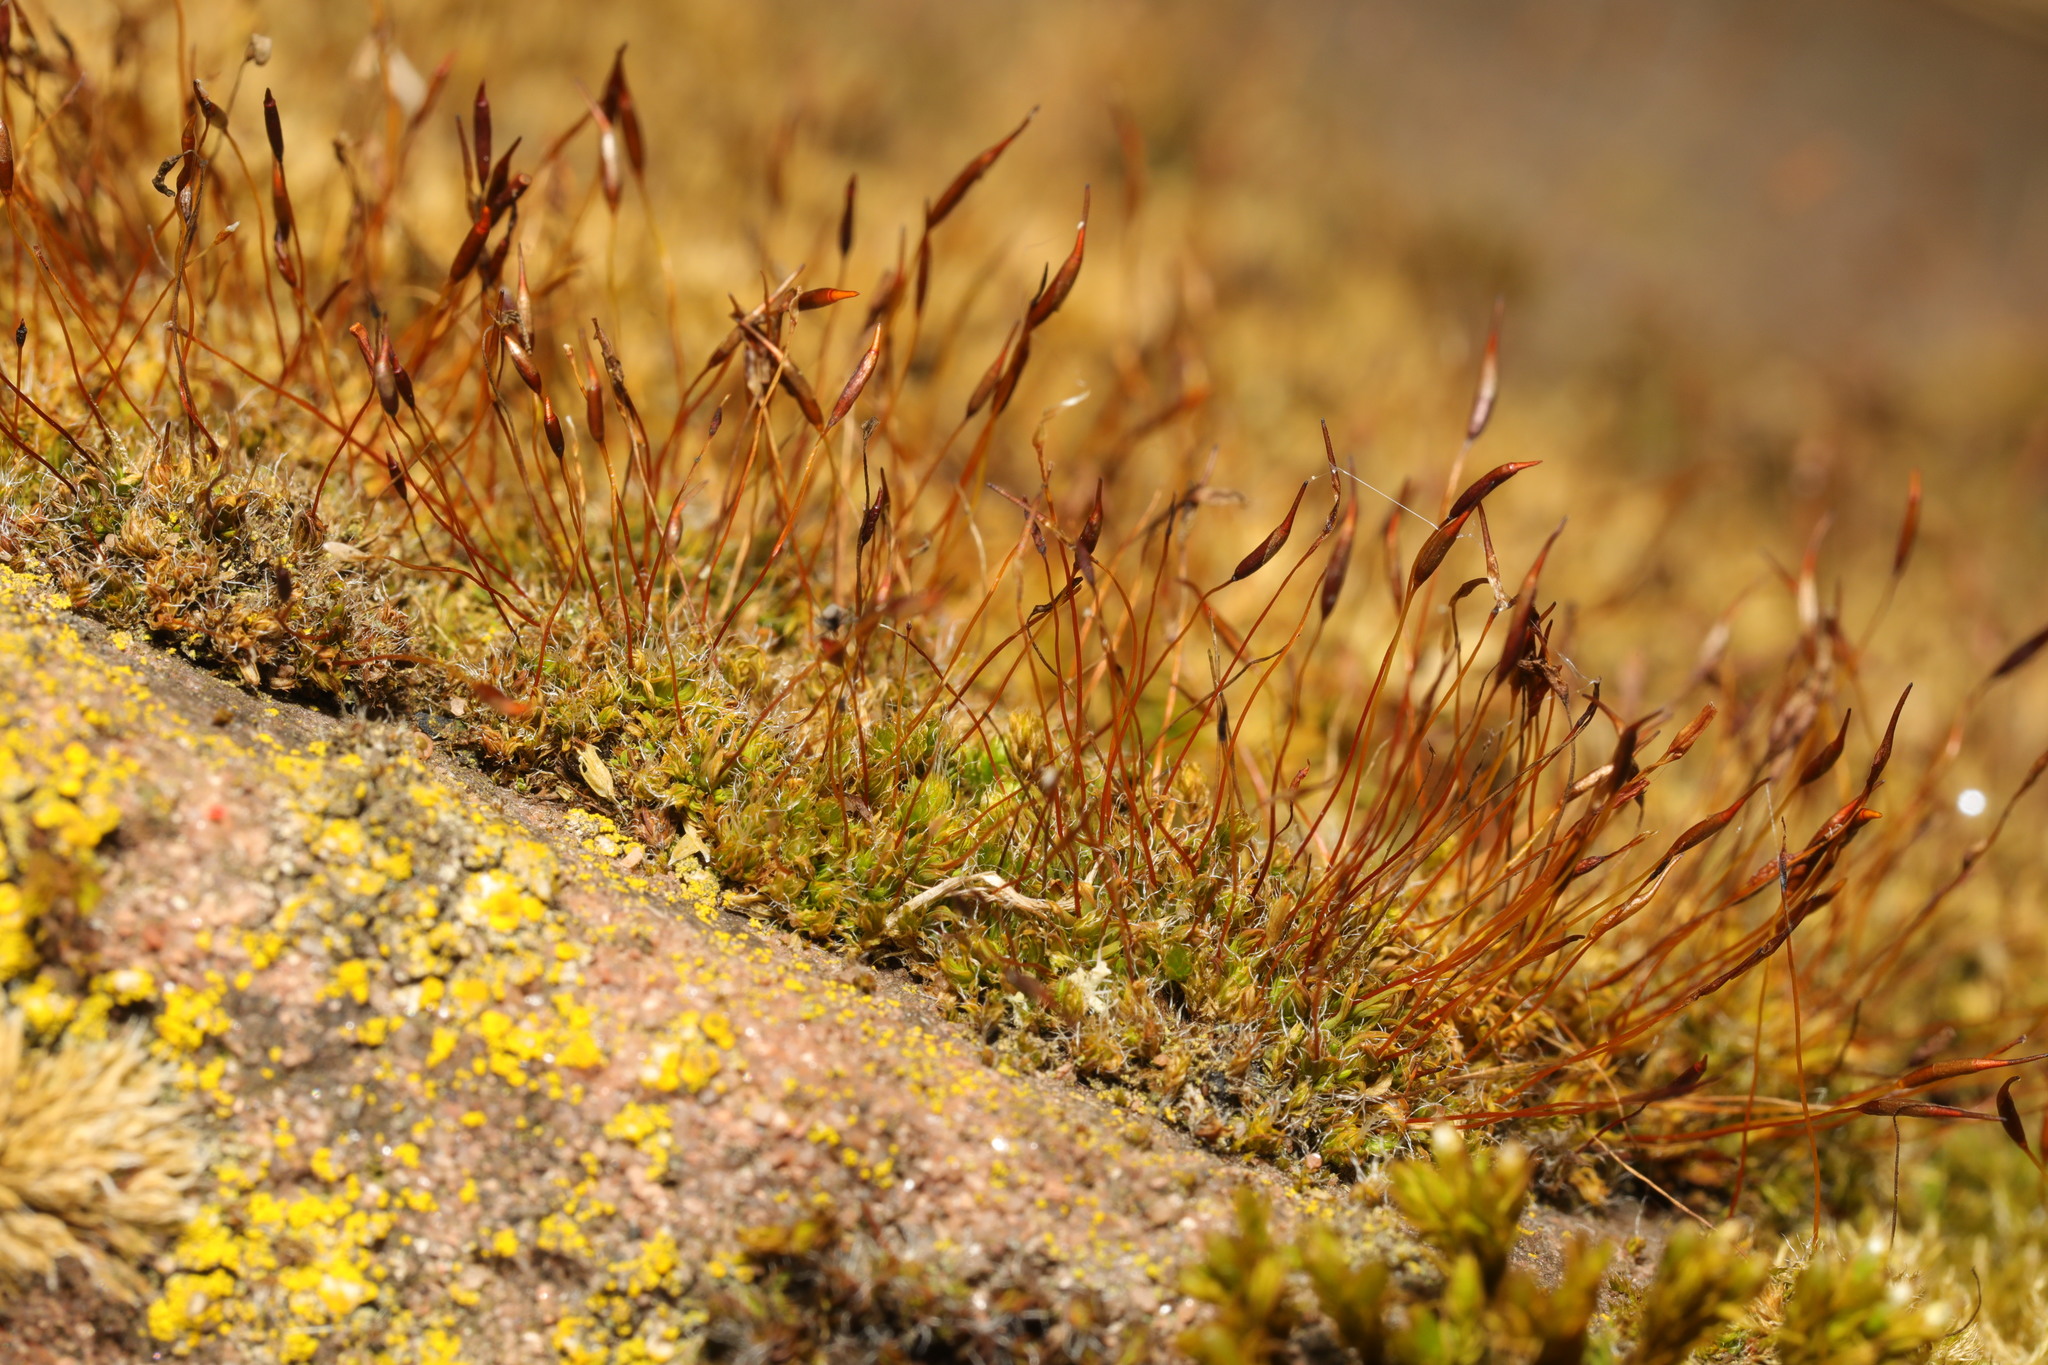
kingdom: Plantae
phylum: Bryophyta
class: Bryopsida
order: Pottiales
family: Pottiaceae
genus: Tortula
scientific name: Tortula muralis
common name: Wall screw-moss
